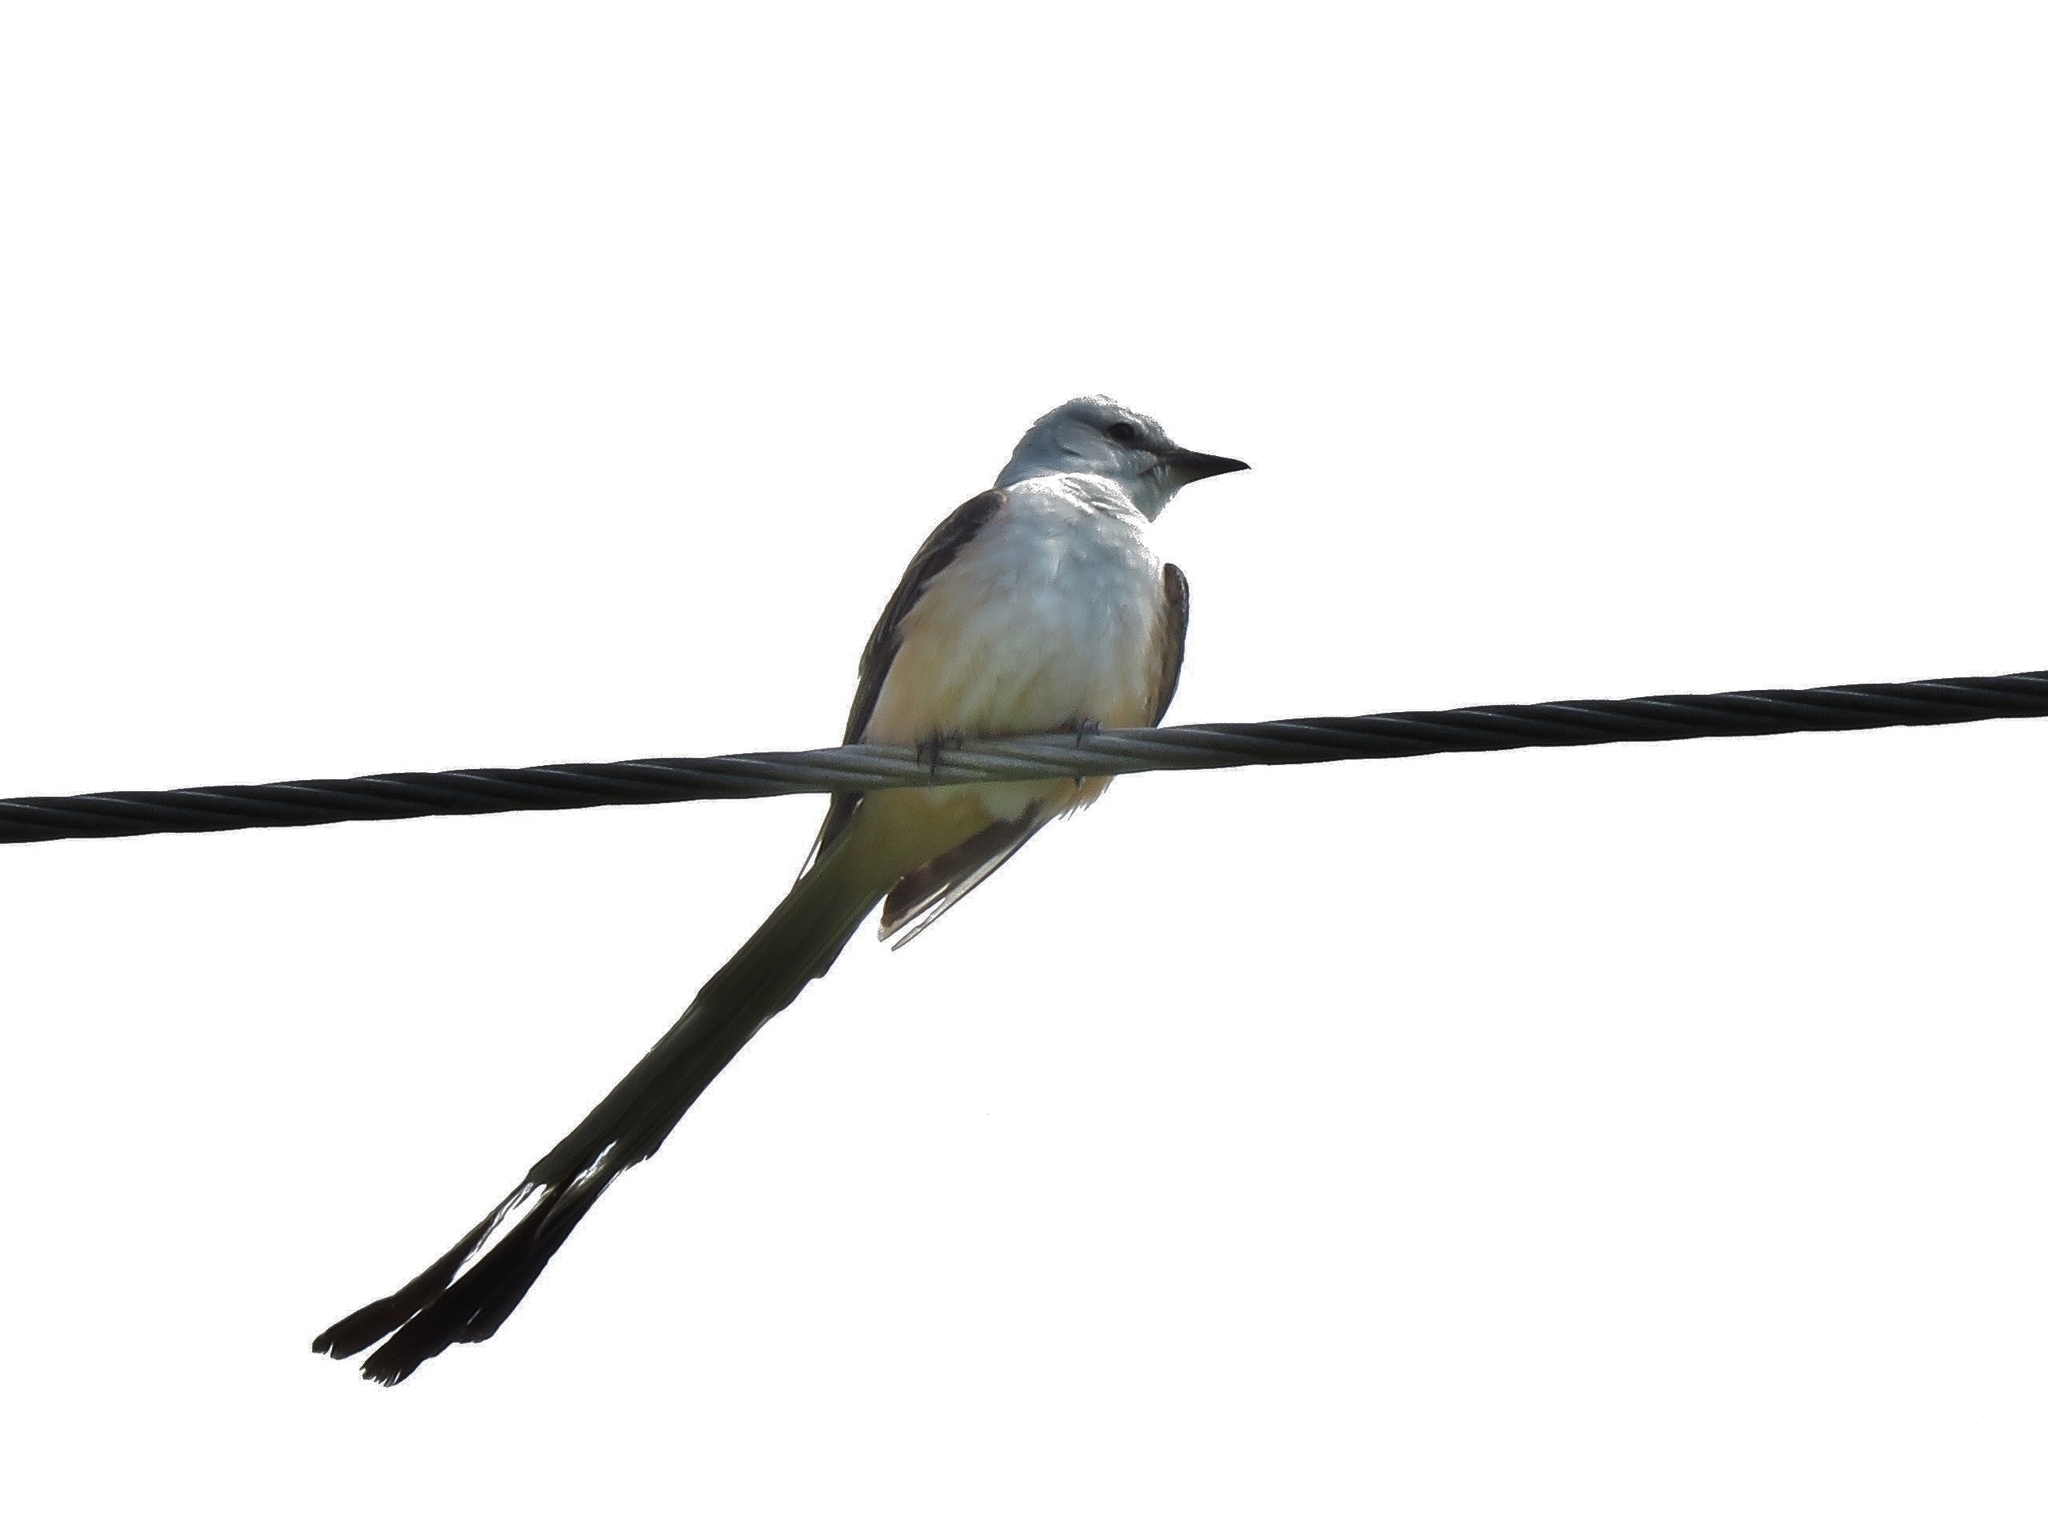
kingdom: Animalia
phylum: Chordata
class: Aves
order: Passeriformes
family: Tyrannidae
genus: Tyrannus
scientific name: Tyrannus forficatus
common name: Scissor-tailed flycatcher
